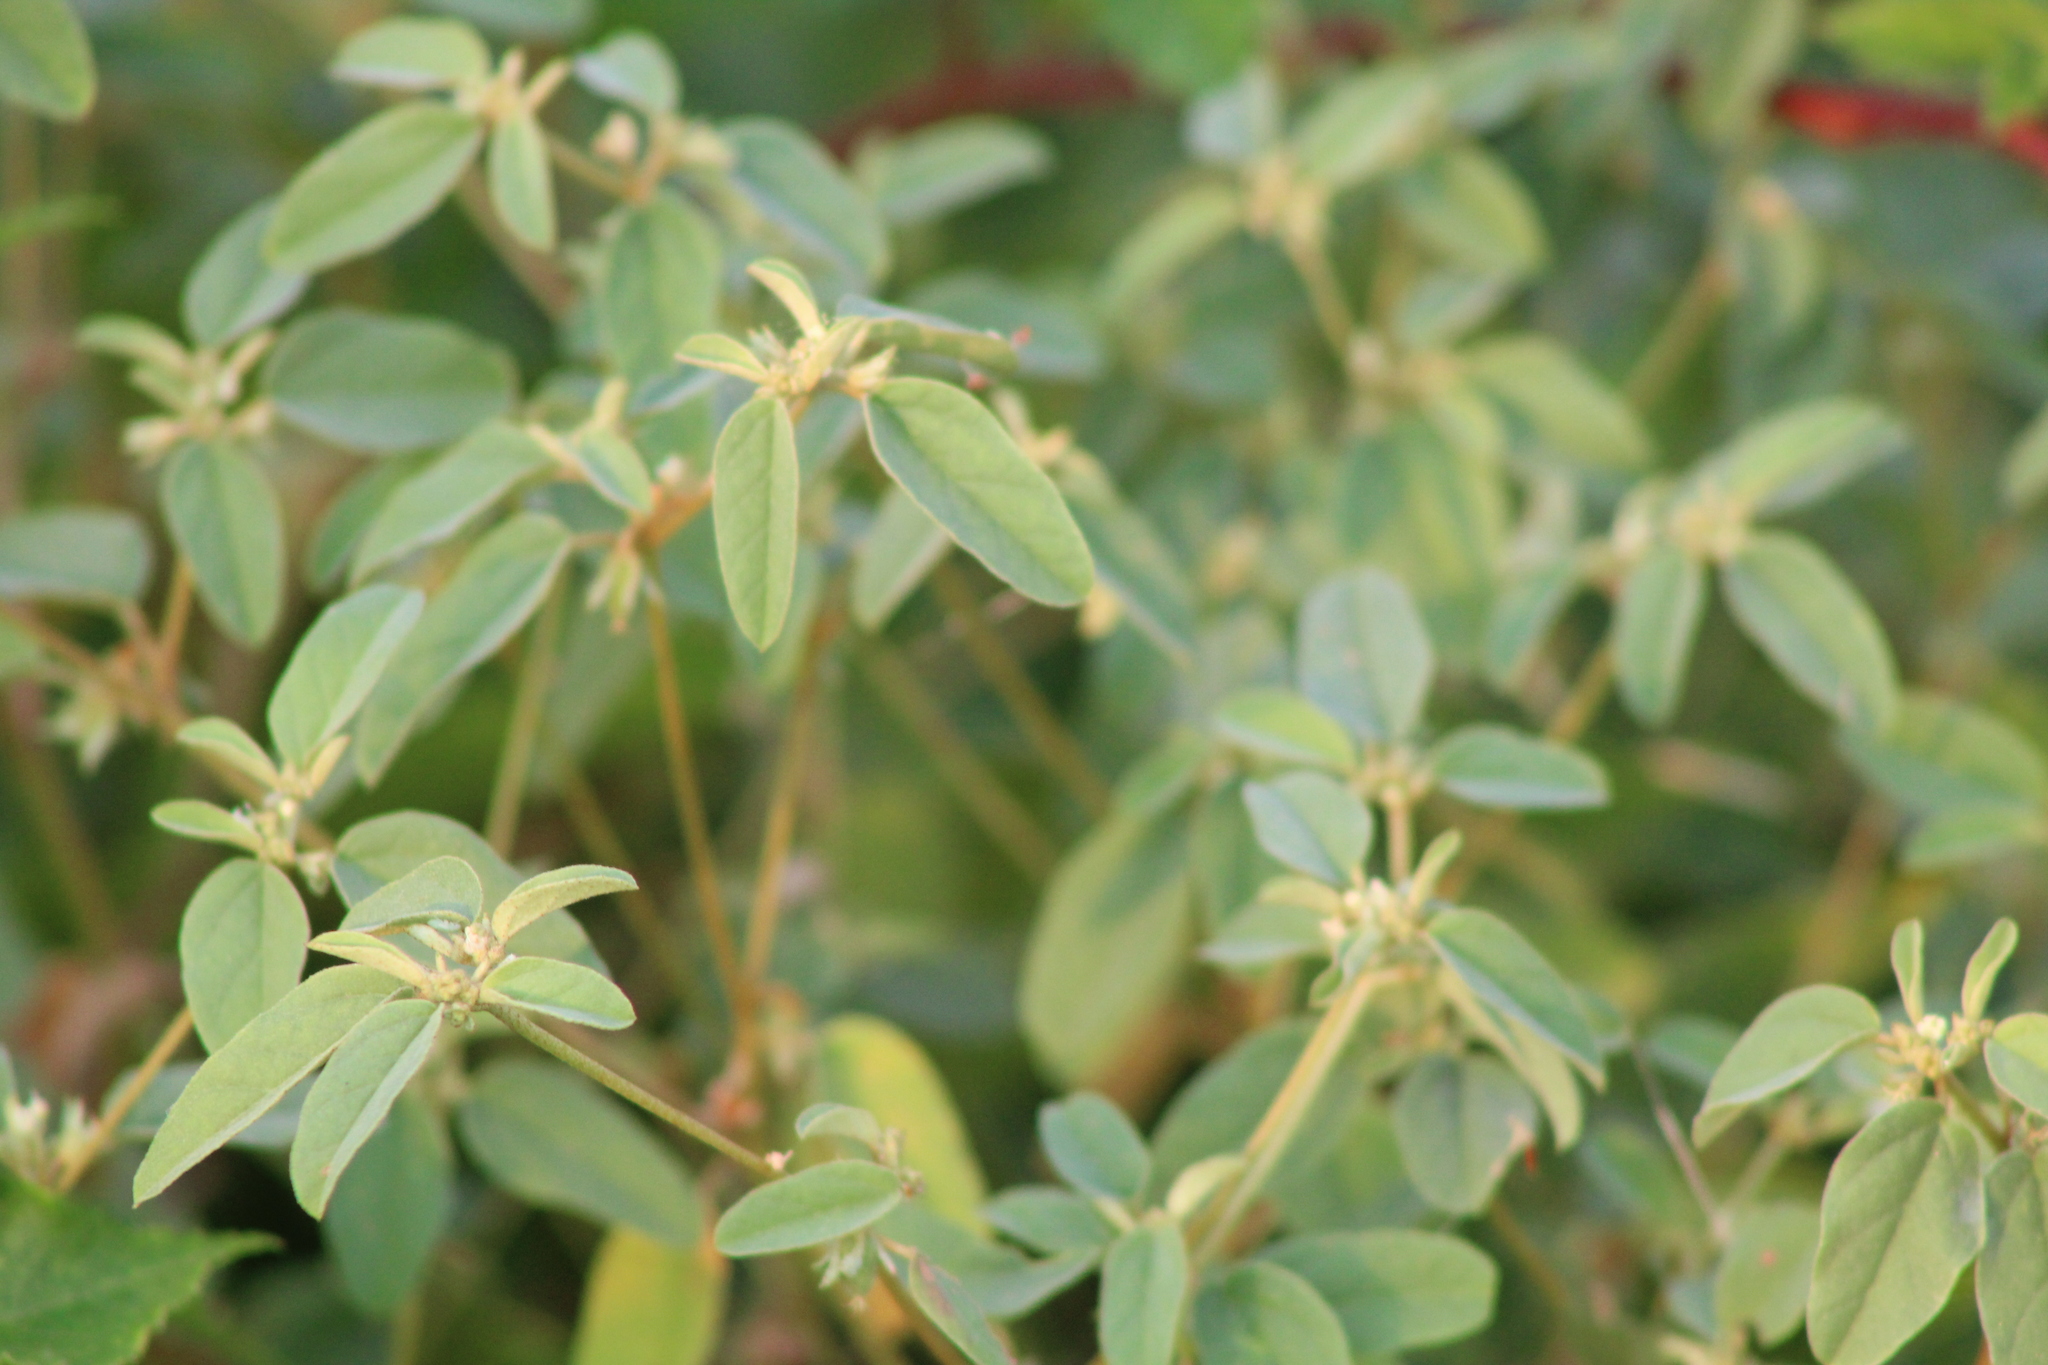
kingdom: Plantae
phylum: Tracheophyta
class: Magnoliopsida
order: Malpighiales
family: Euphorbiaceae
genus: Croton
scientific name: Croton monanthogynus
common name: One-seed croton
